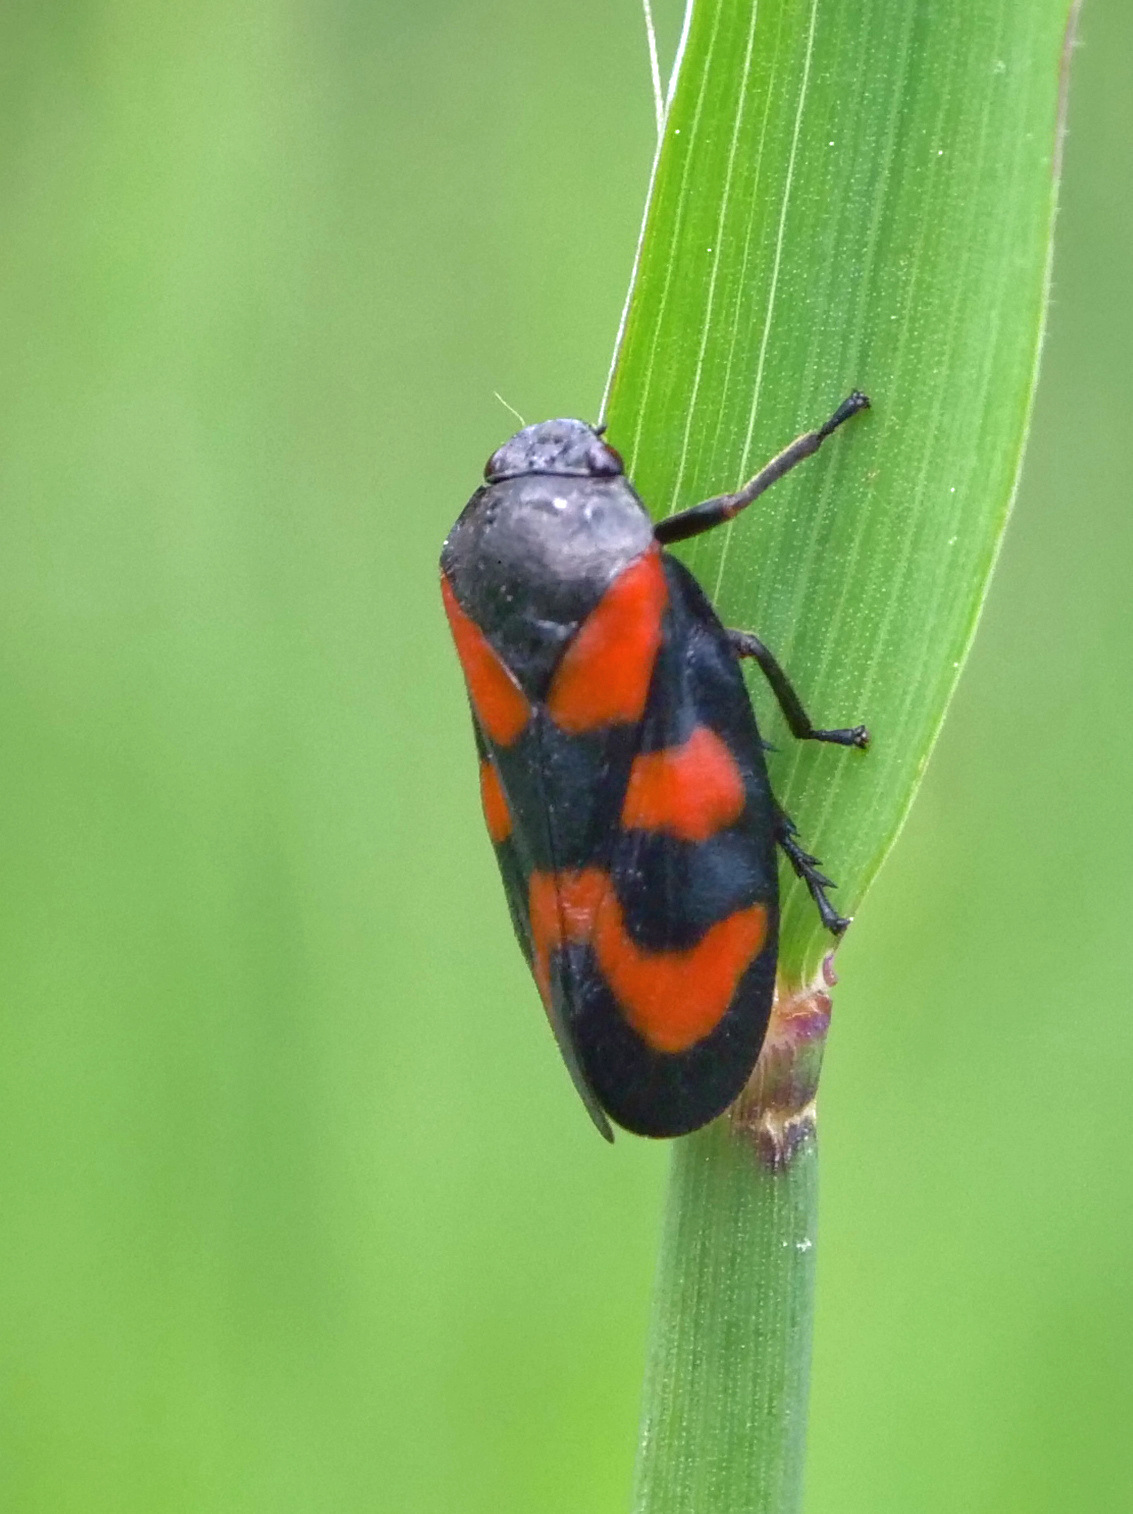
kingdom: Animalia
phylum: Arthropoda
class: Insecta
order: Hemiptera
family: Cercopidae
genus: Cercopis
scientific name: Cercopis vulnerata
